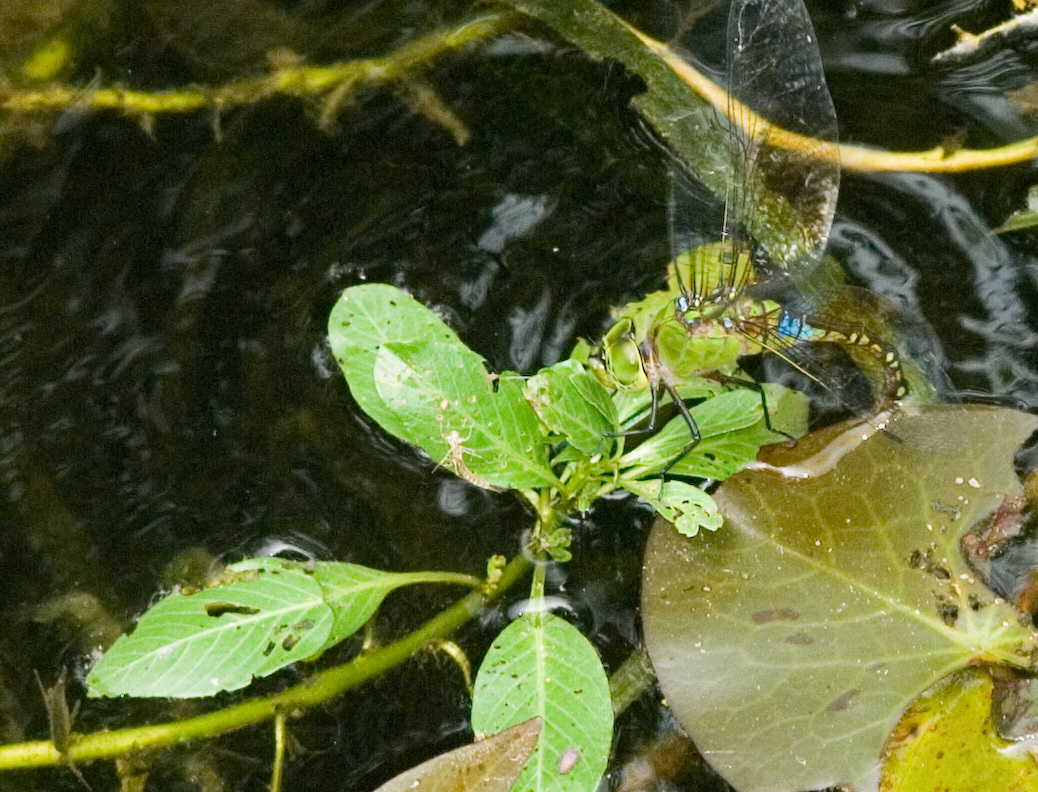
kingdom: Animalia
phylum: Arthropoda
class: Insecta
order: Odonata
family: Aeshnidae
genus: Anax
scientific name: Anax panybeus
